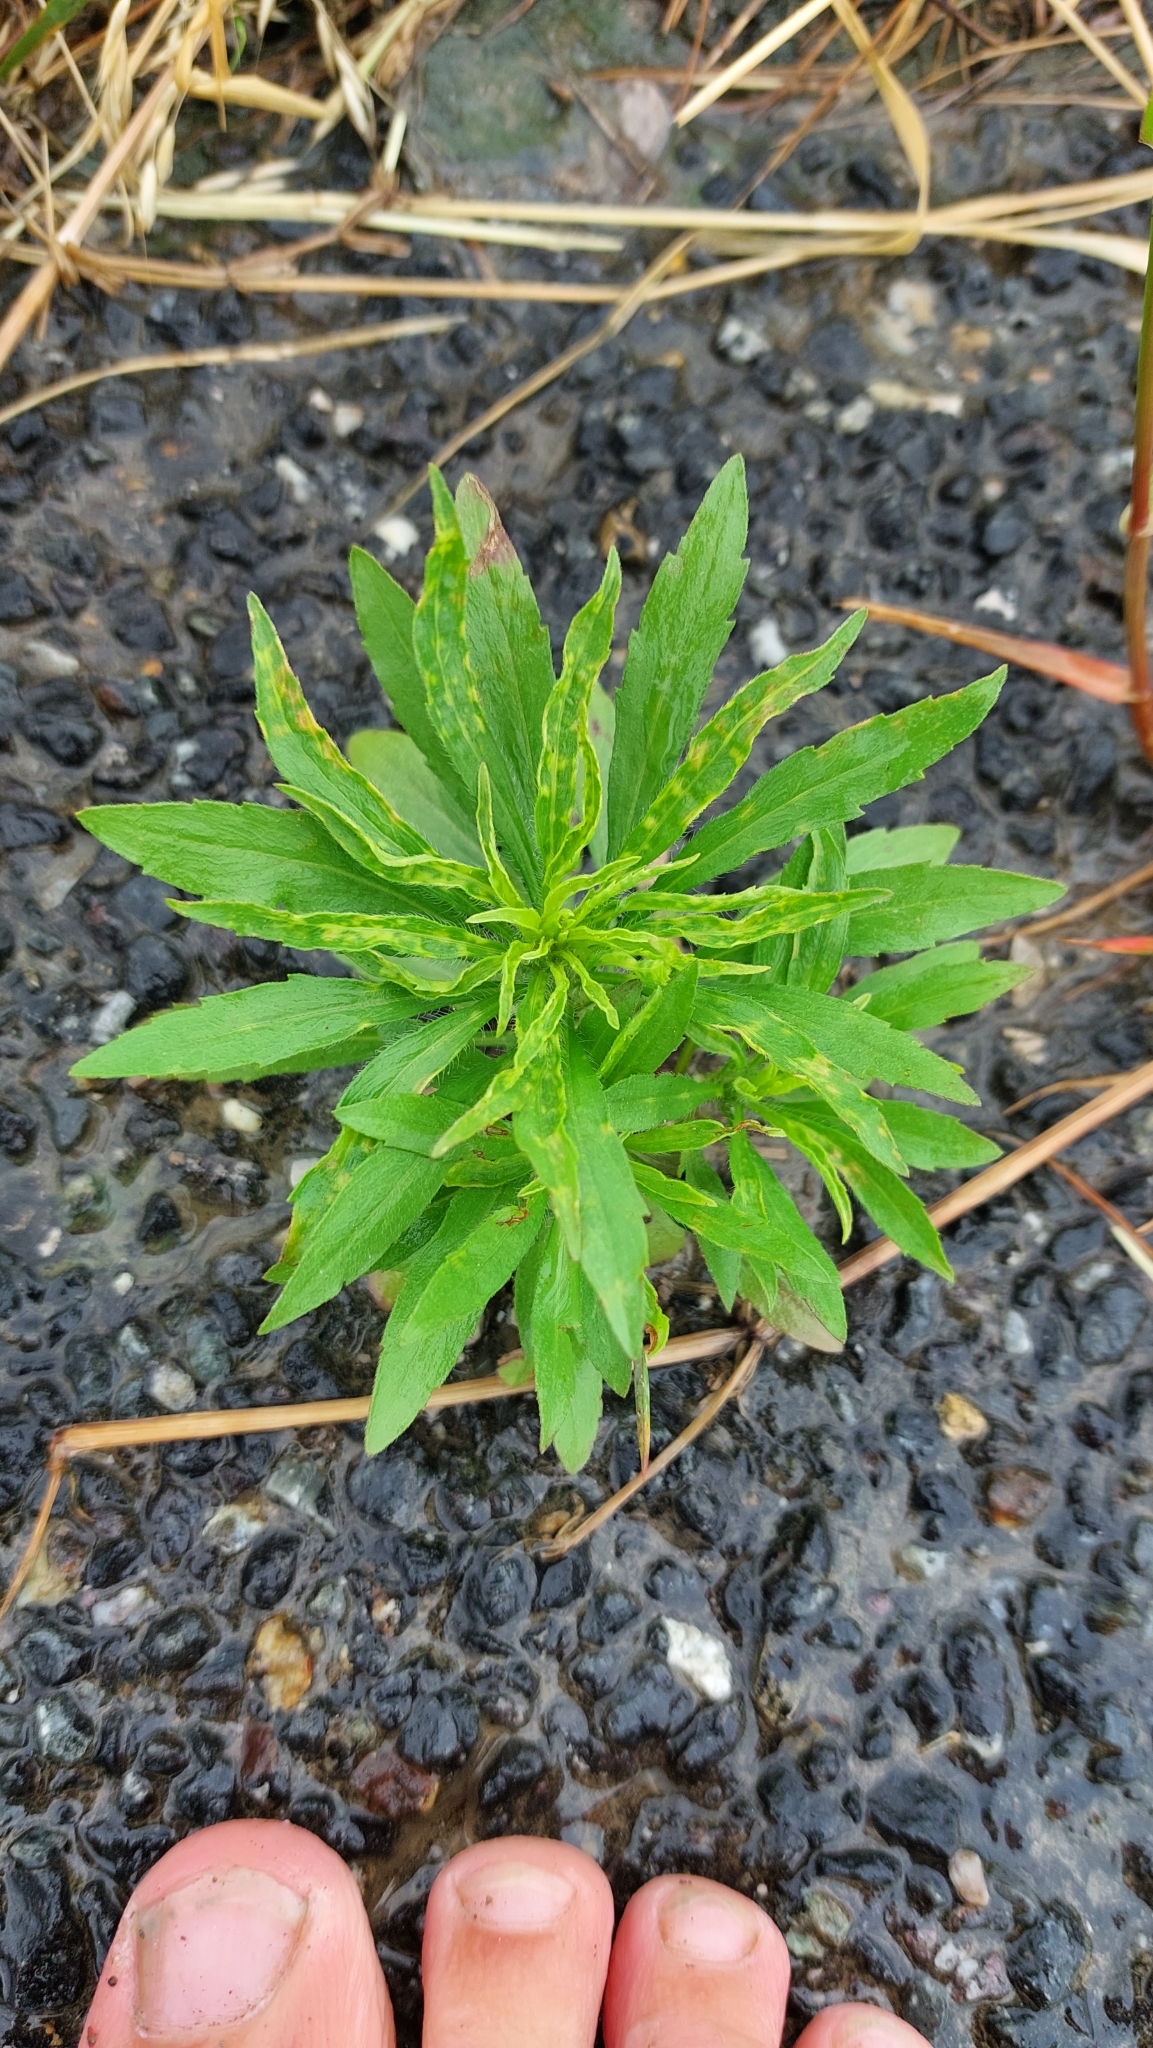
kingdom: Plantae
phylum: Tracheophyta
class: Magnoliopsida
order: Asterales
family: Asteraceae
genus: Erigeron
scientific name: Erigeron canadensis
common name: Canadian fleabane
